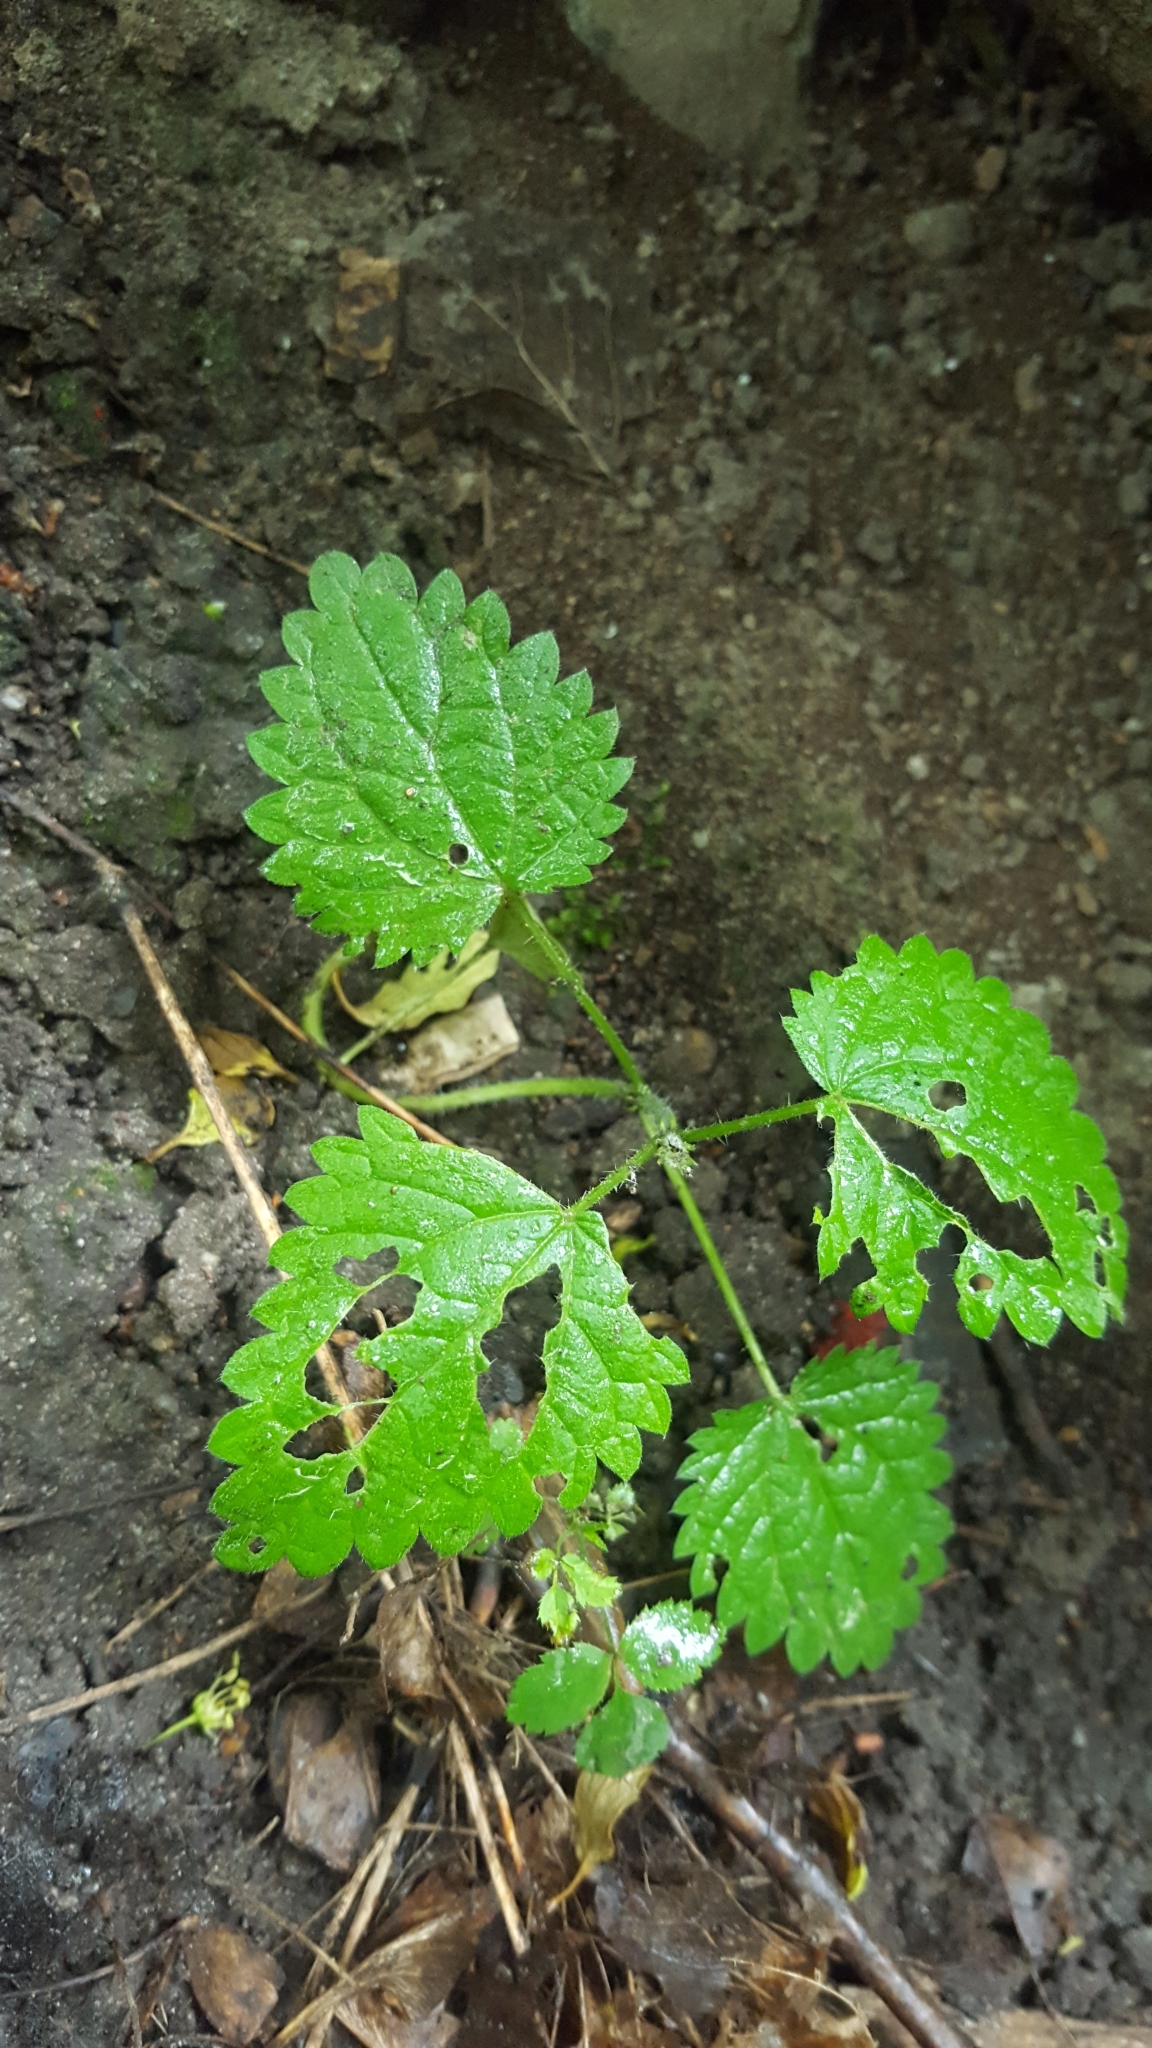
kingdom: Plantae
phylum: Tracheophyta
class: Magnoliopsida
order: Rosales
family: Urticaceae
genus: Urtica
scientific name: Urtica dioica
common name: Common nettle
